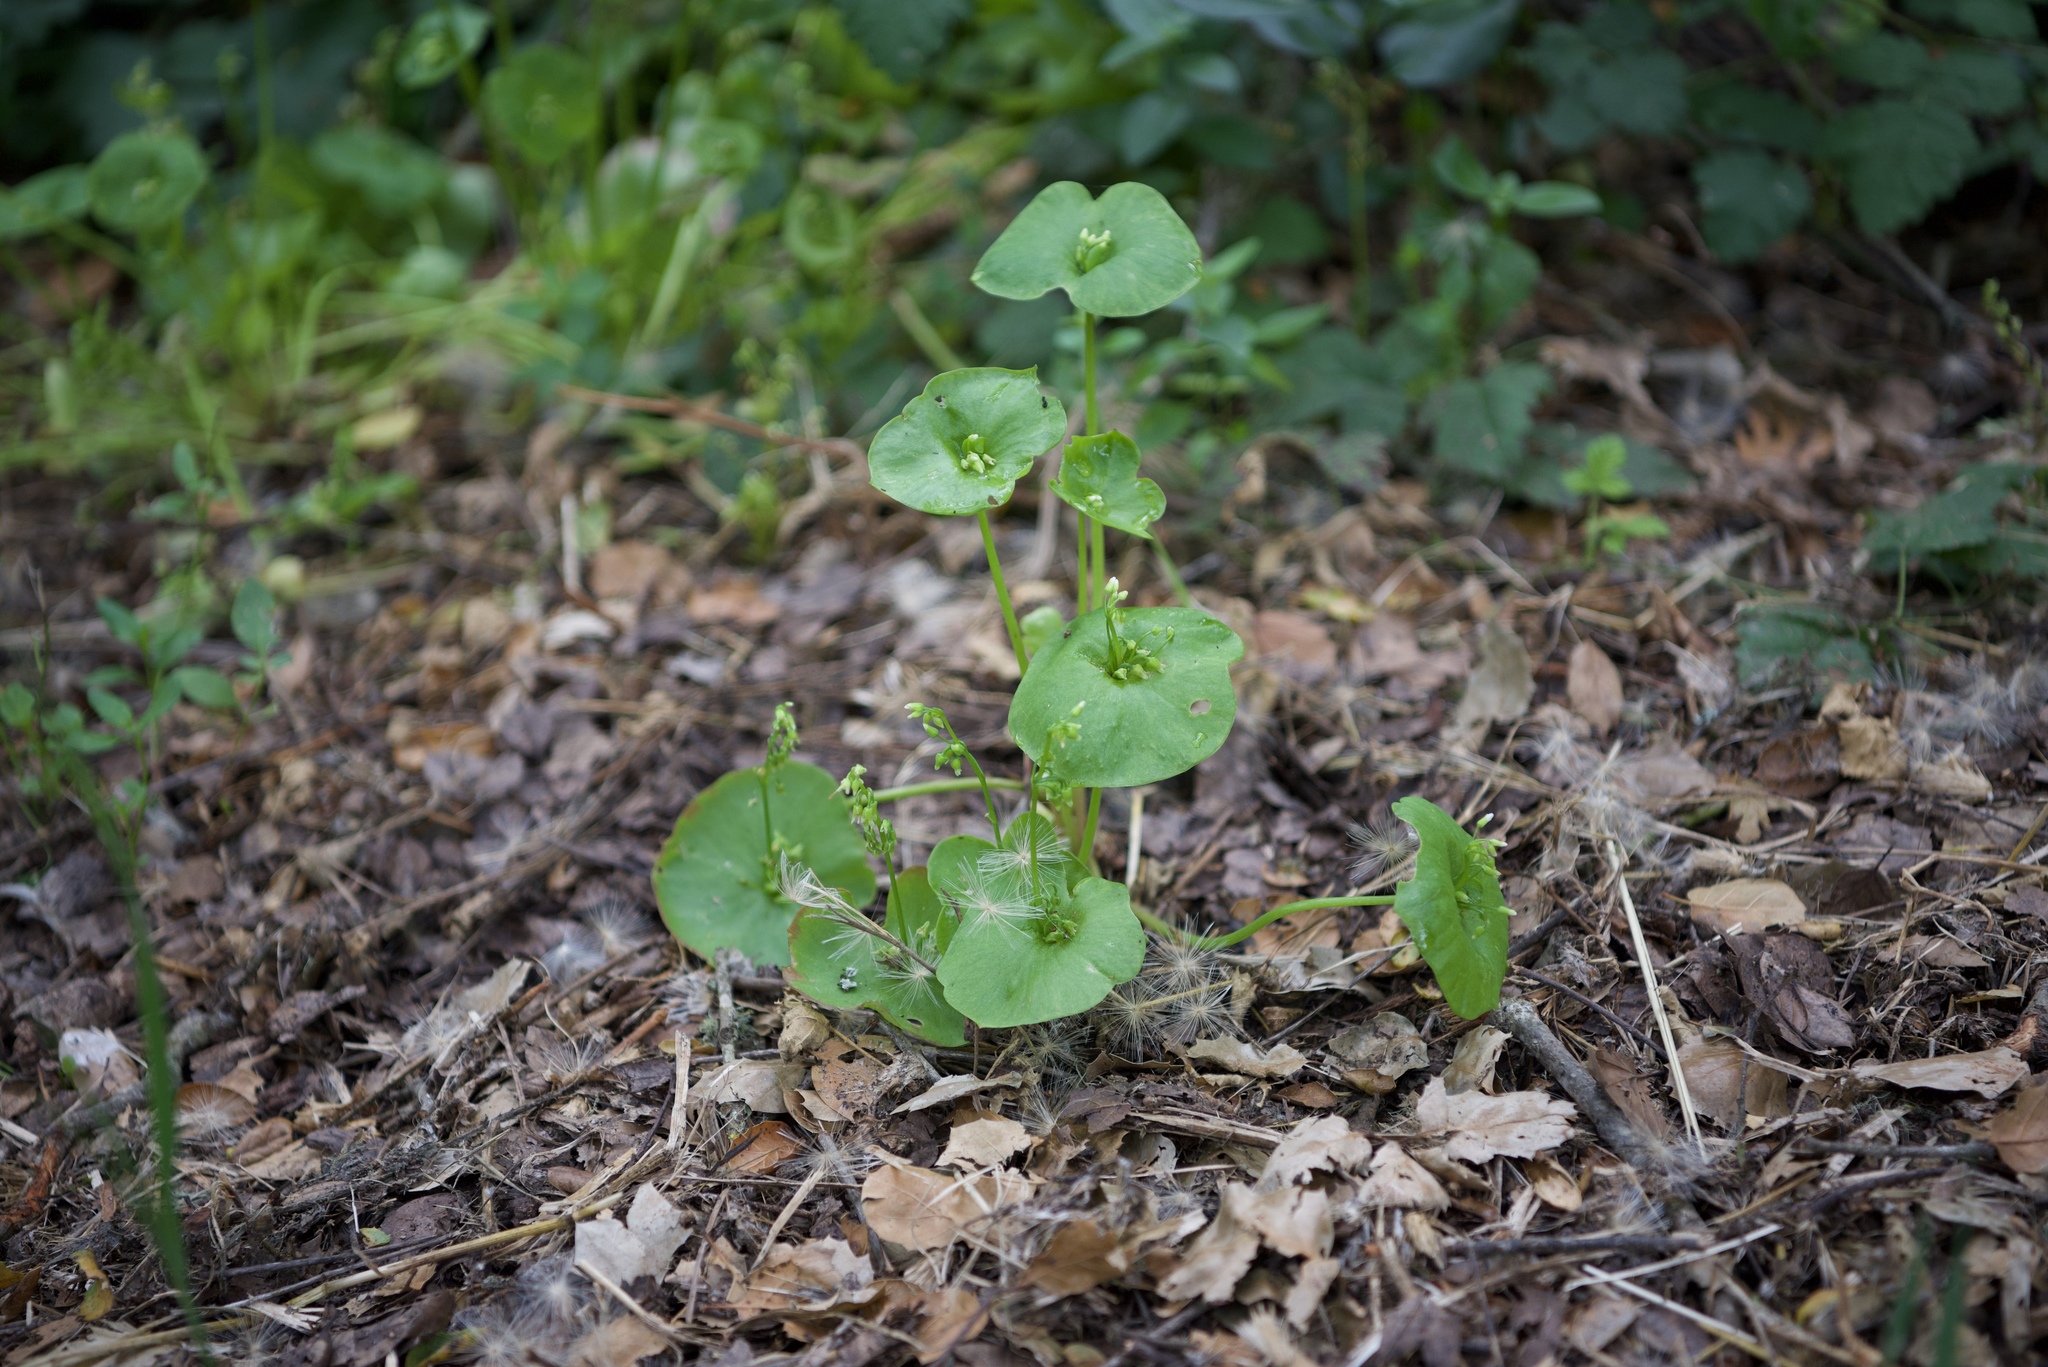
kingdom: Plantae
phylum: Tracheophyta
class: Magnoliopsida
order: Caryophyllales
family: Montiaceae
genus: Claytonia
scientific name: Claytonia perfoliata
